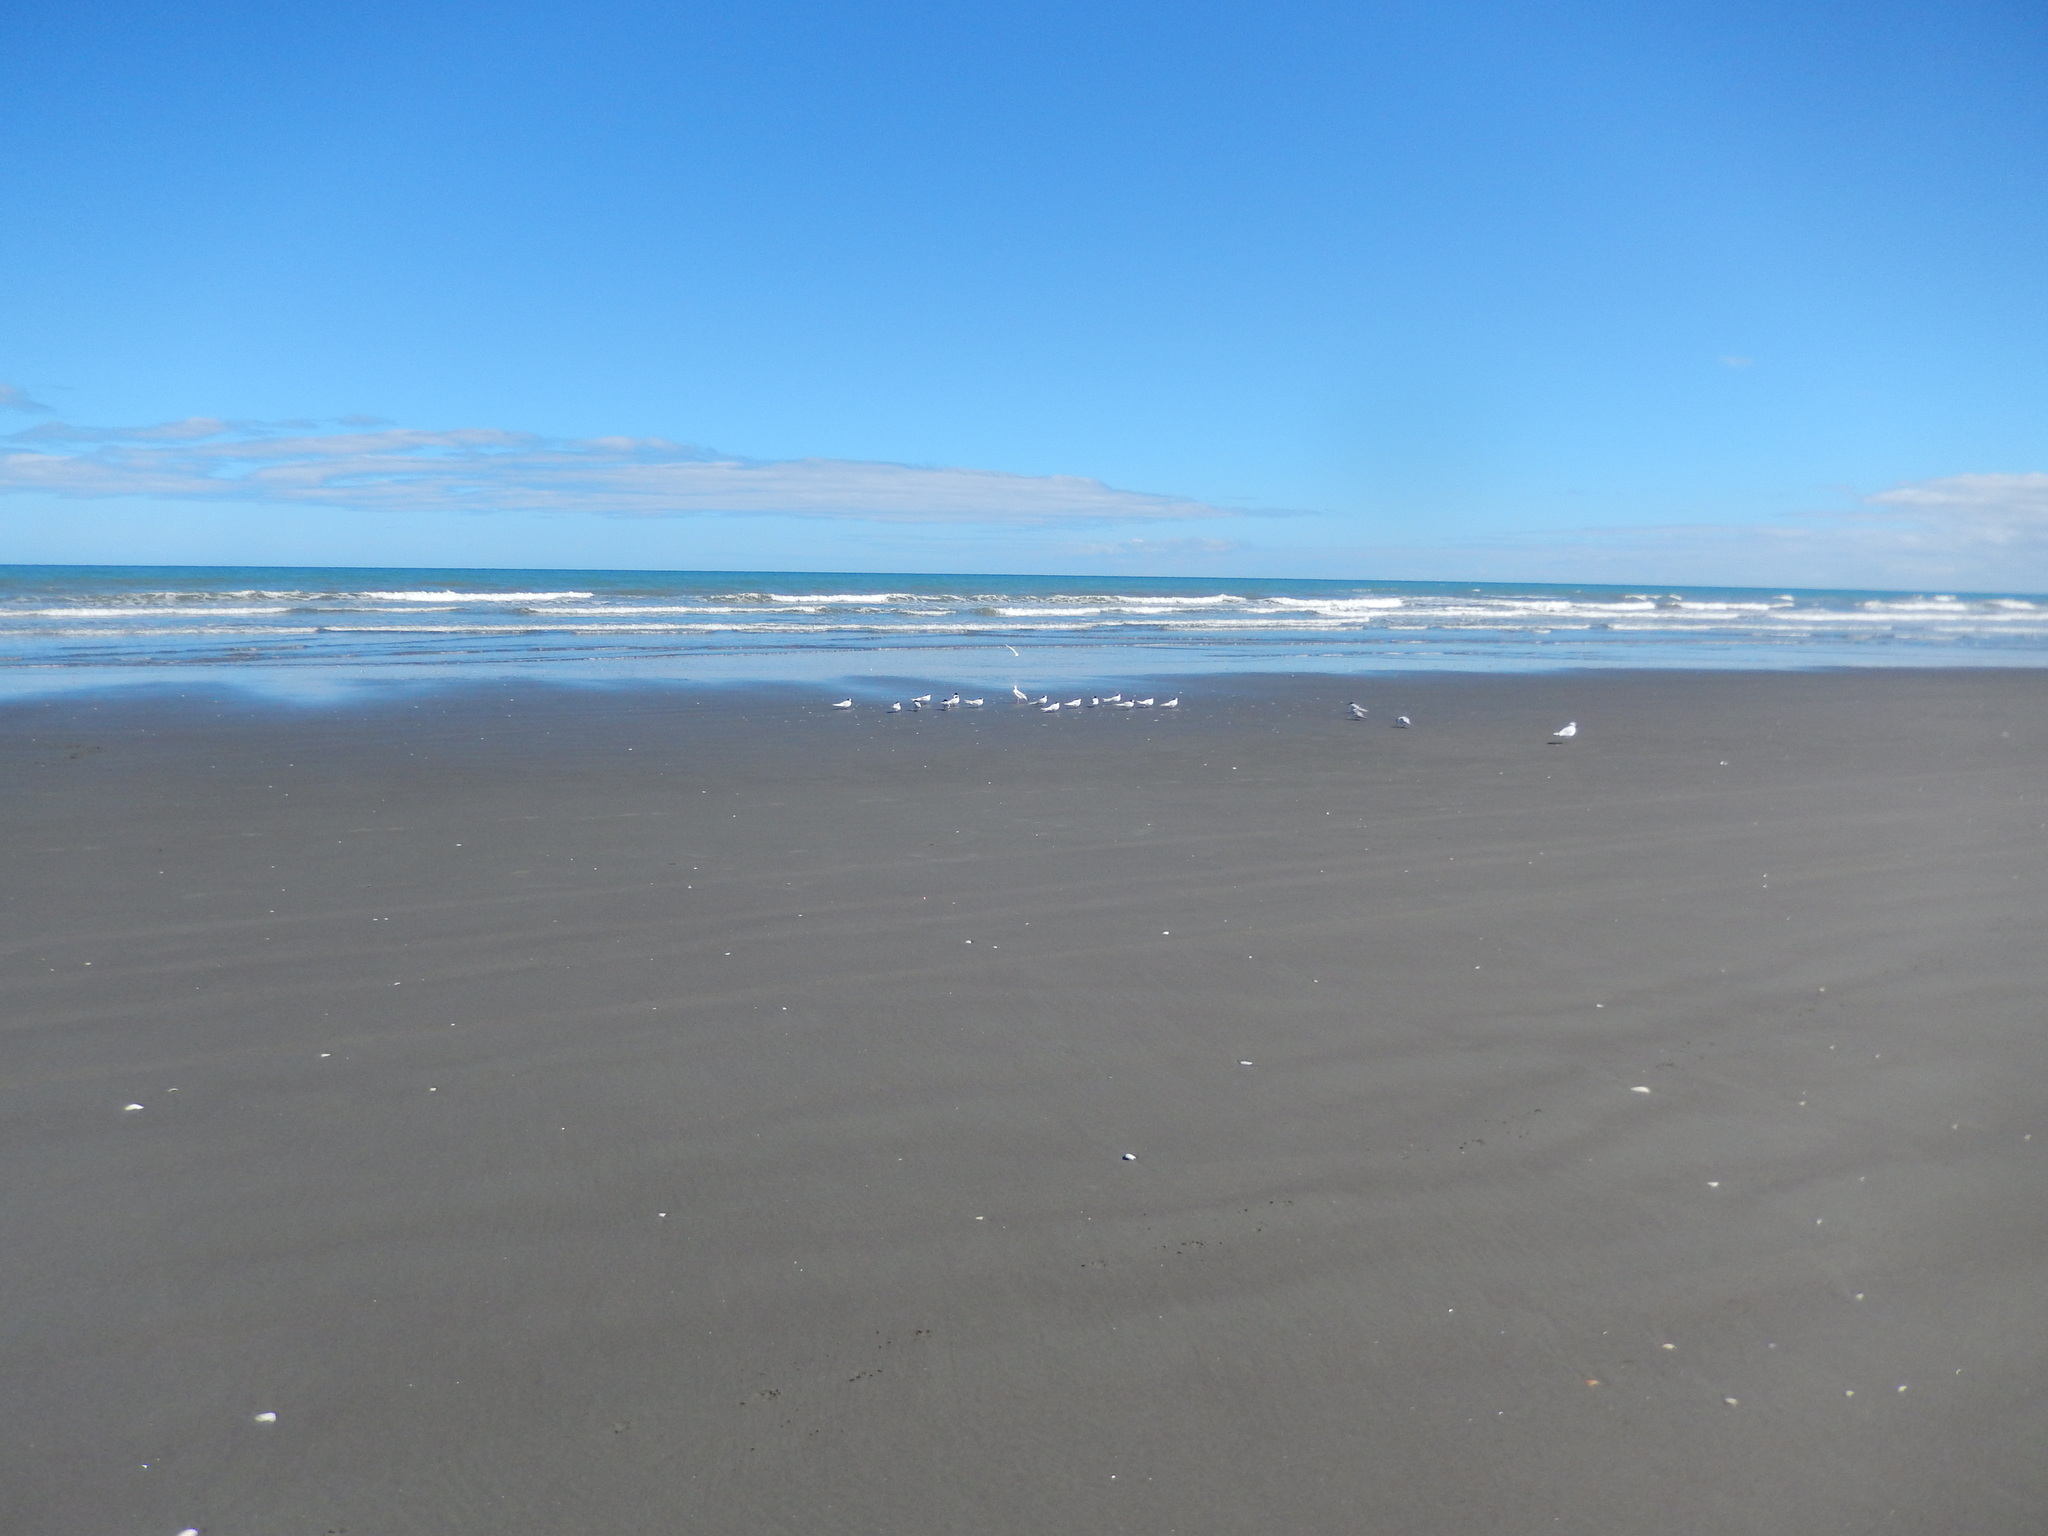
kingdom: Animalia
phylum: Chordata
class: Aves
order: Charadriiformes
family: Laridae
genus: Sterna
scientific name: Sterna striata
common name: White-fronted tern
